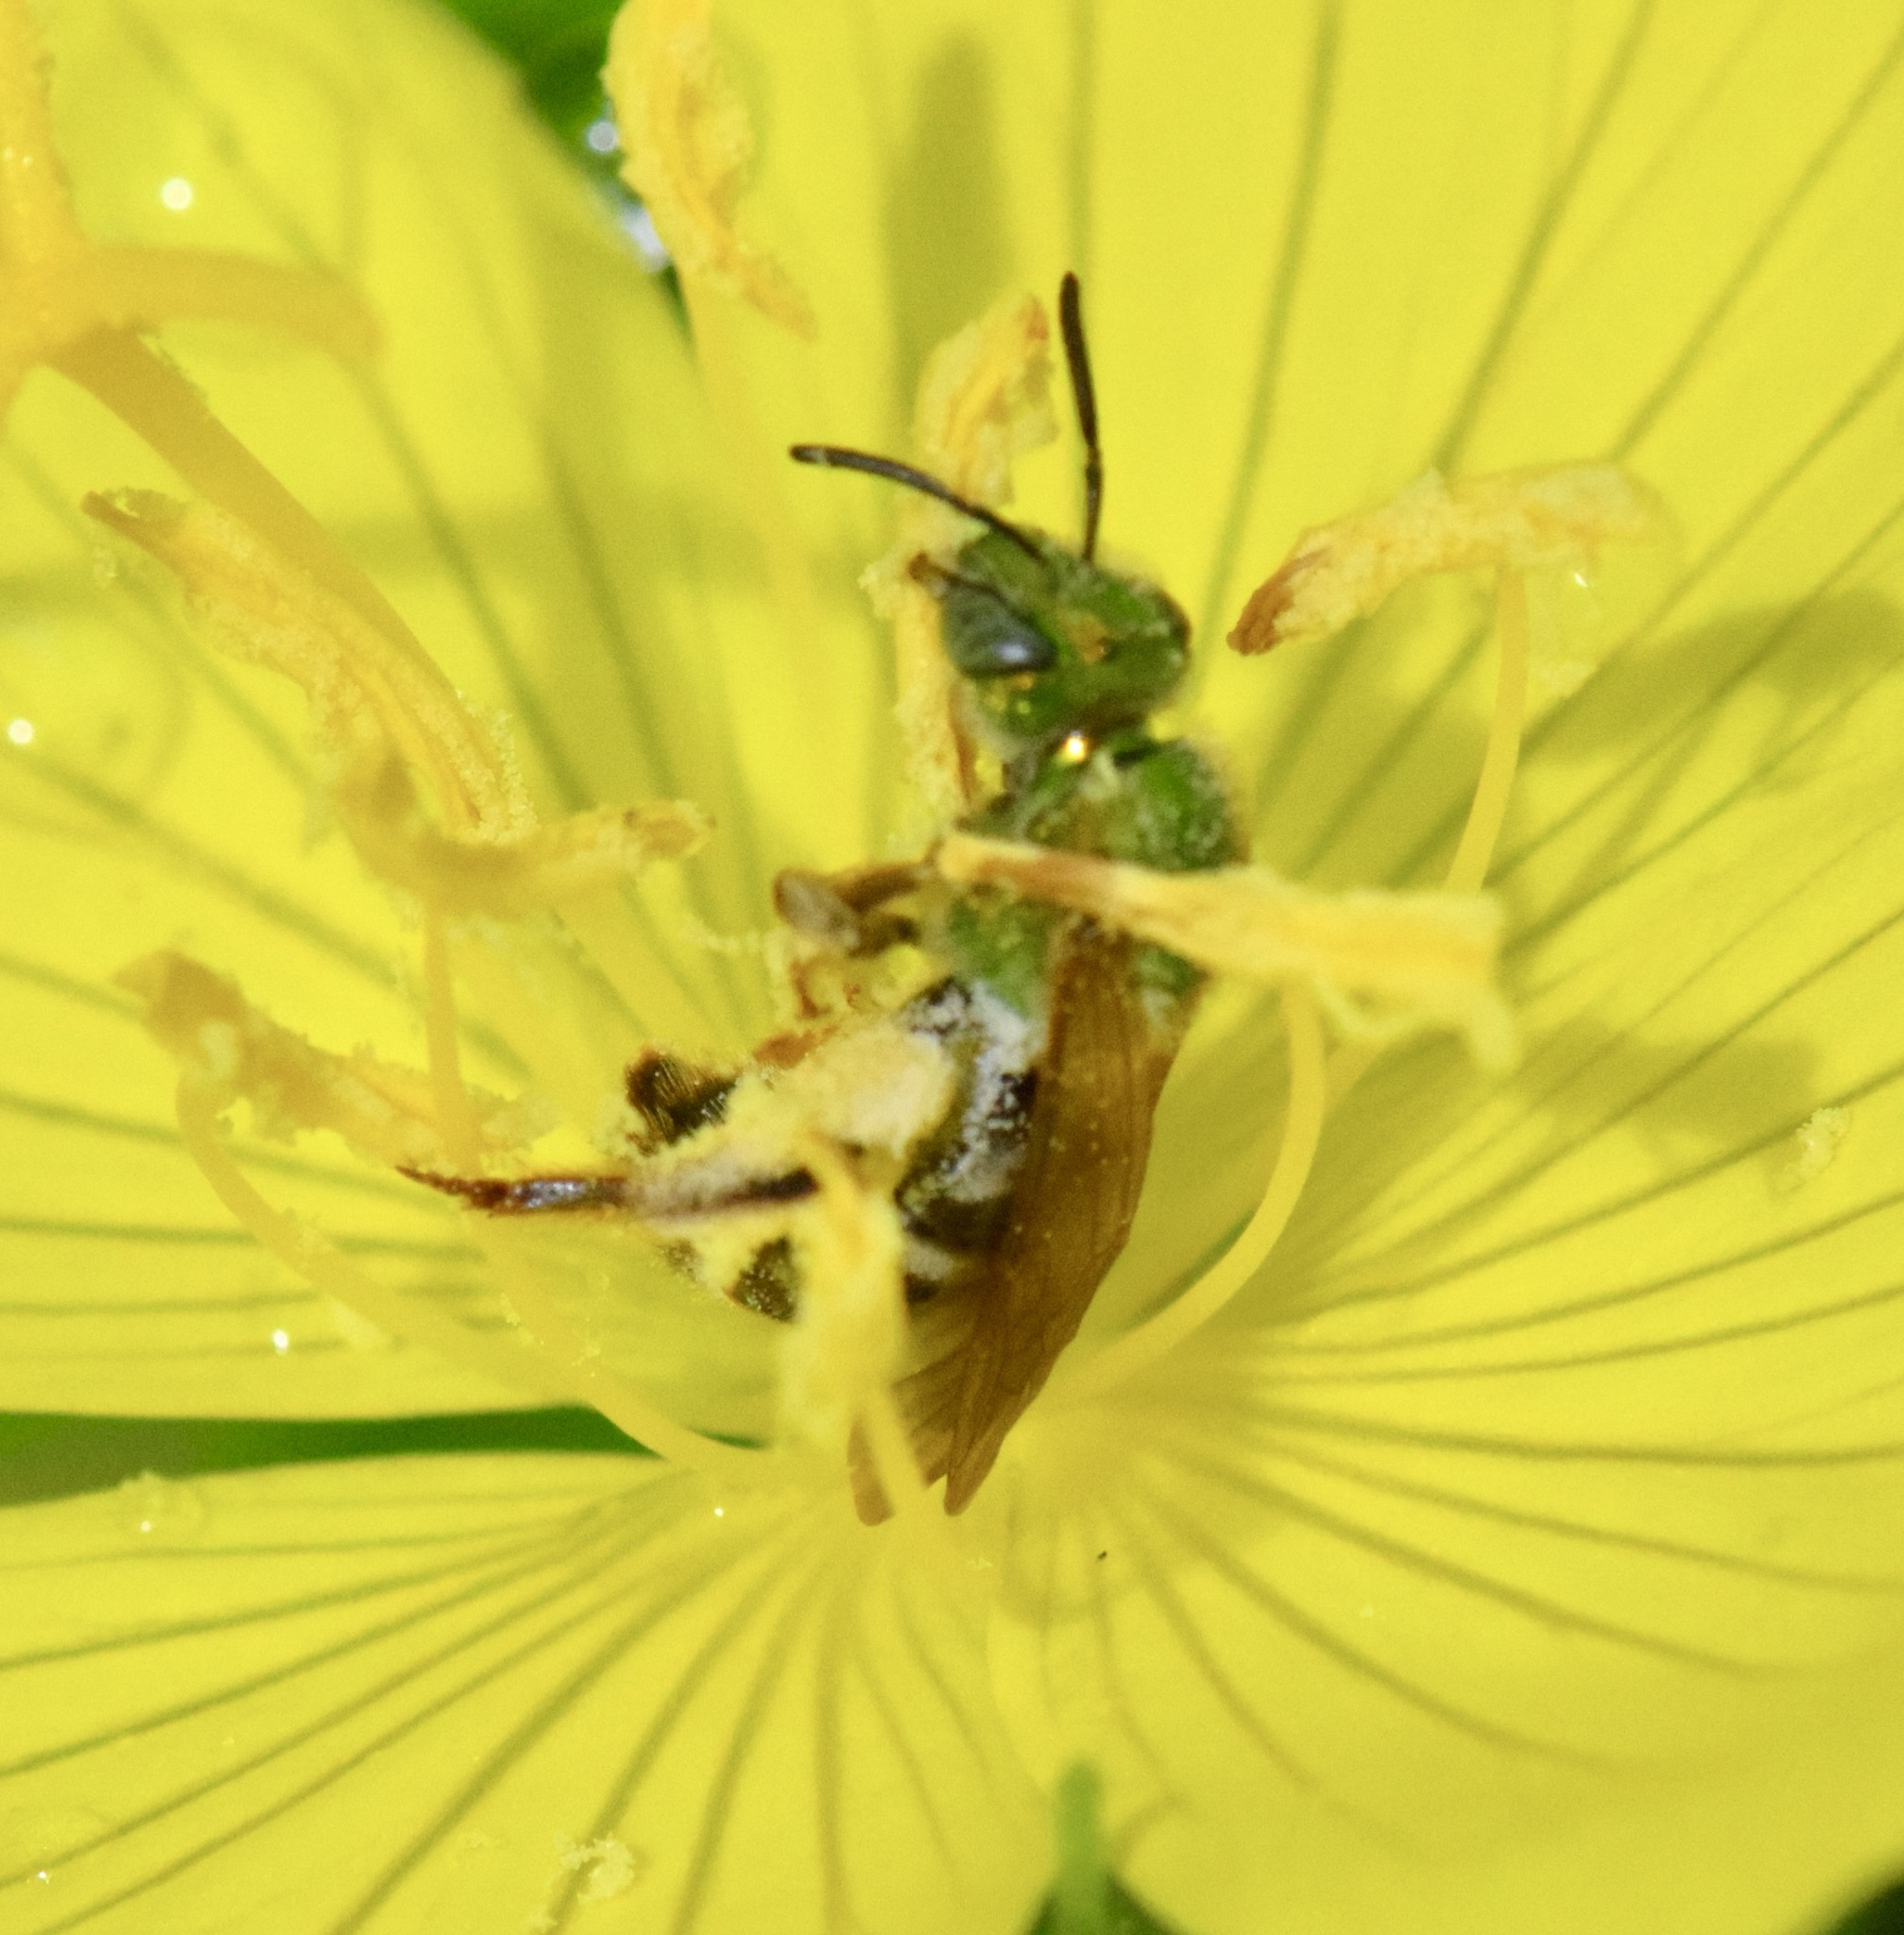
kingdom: Animalia
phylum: Arthropoda
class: Insecta
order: Hymenoptera
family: Halictidae
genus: Agapostemon
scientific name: Agapostemon virescens
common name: Bicolored striped sweat bee
